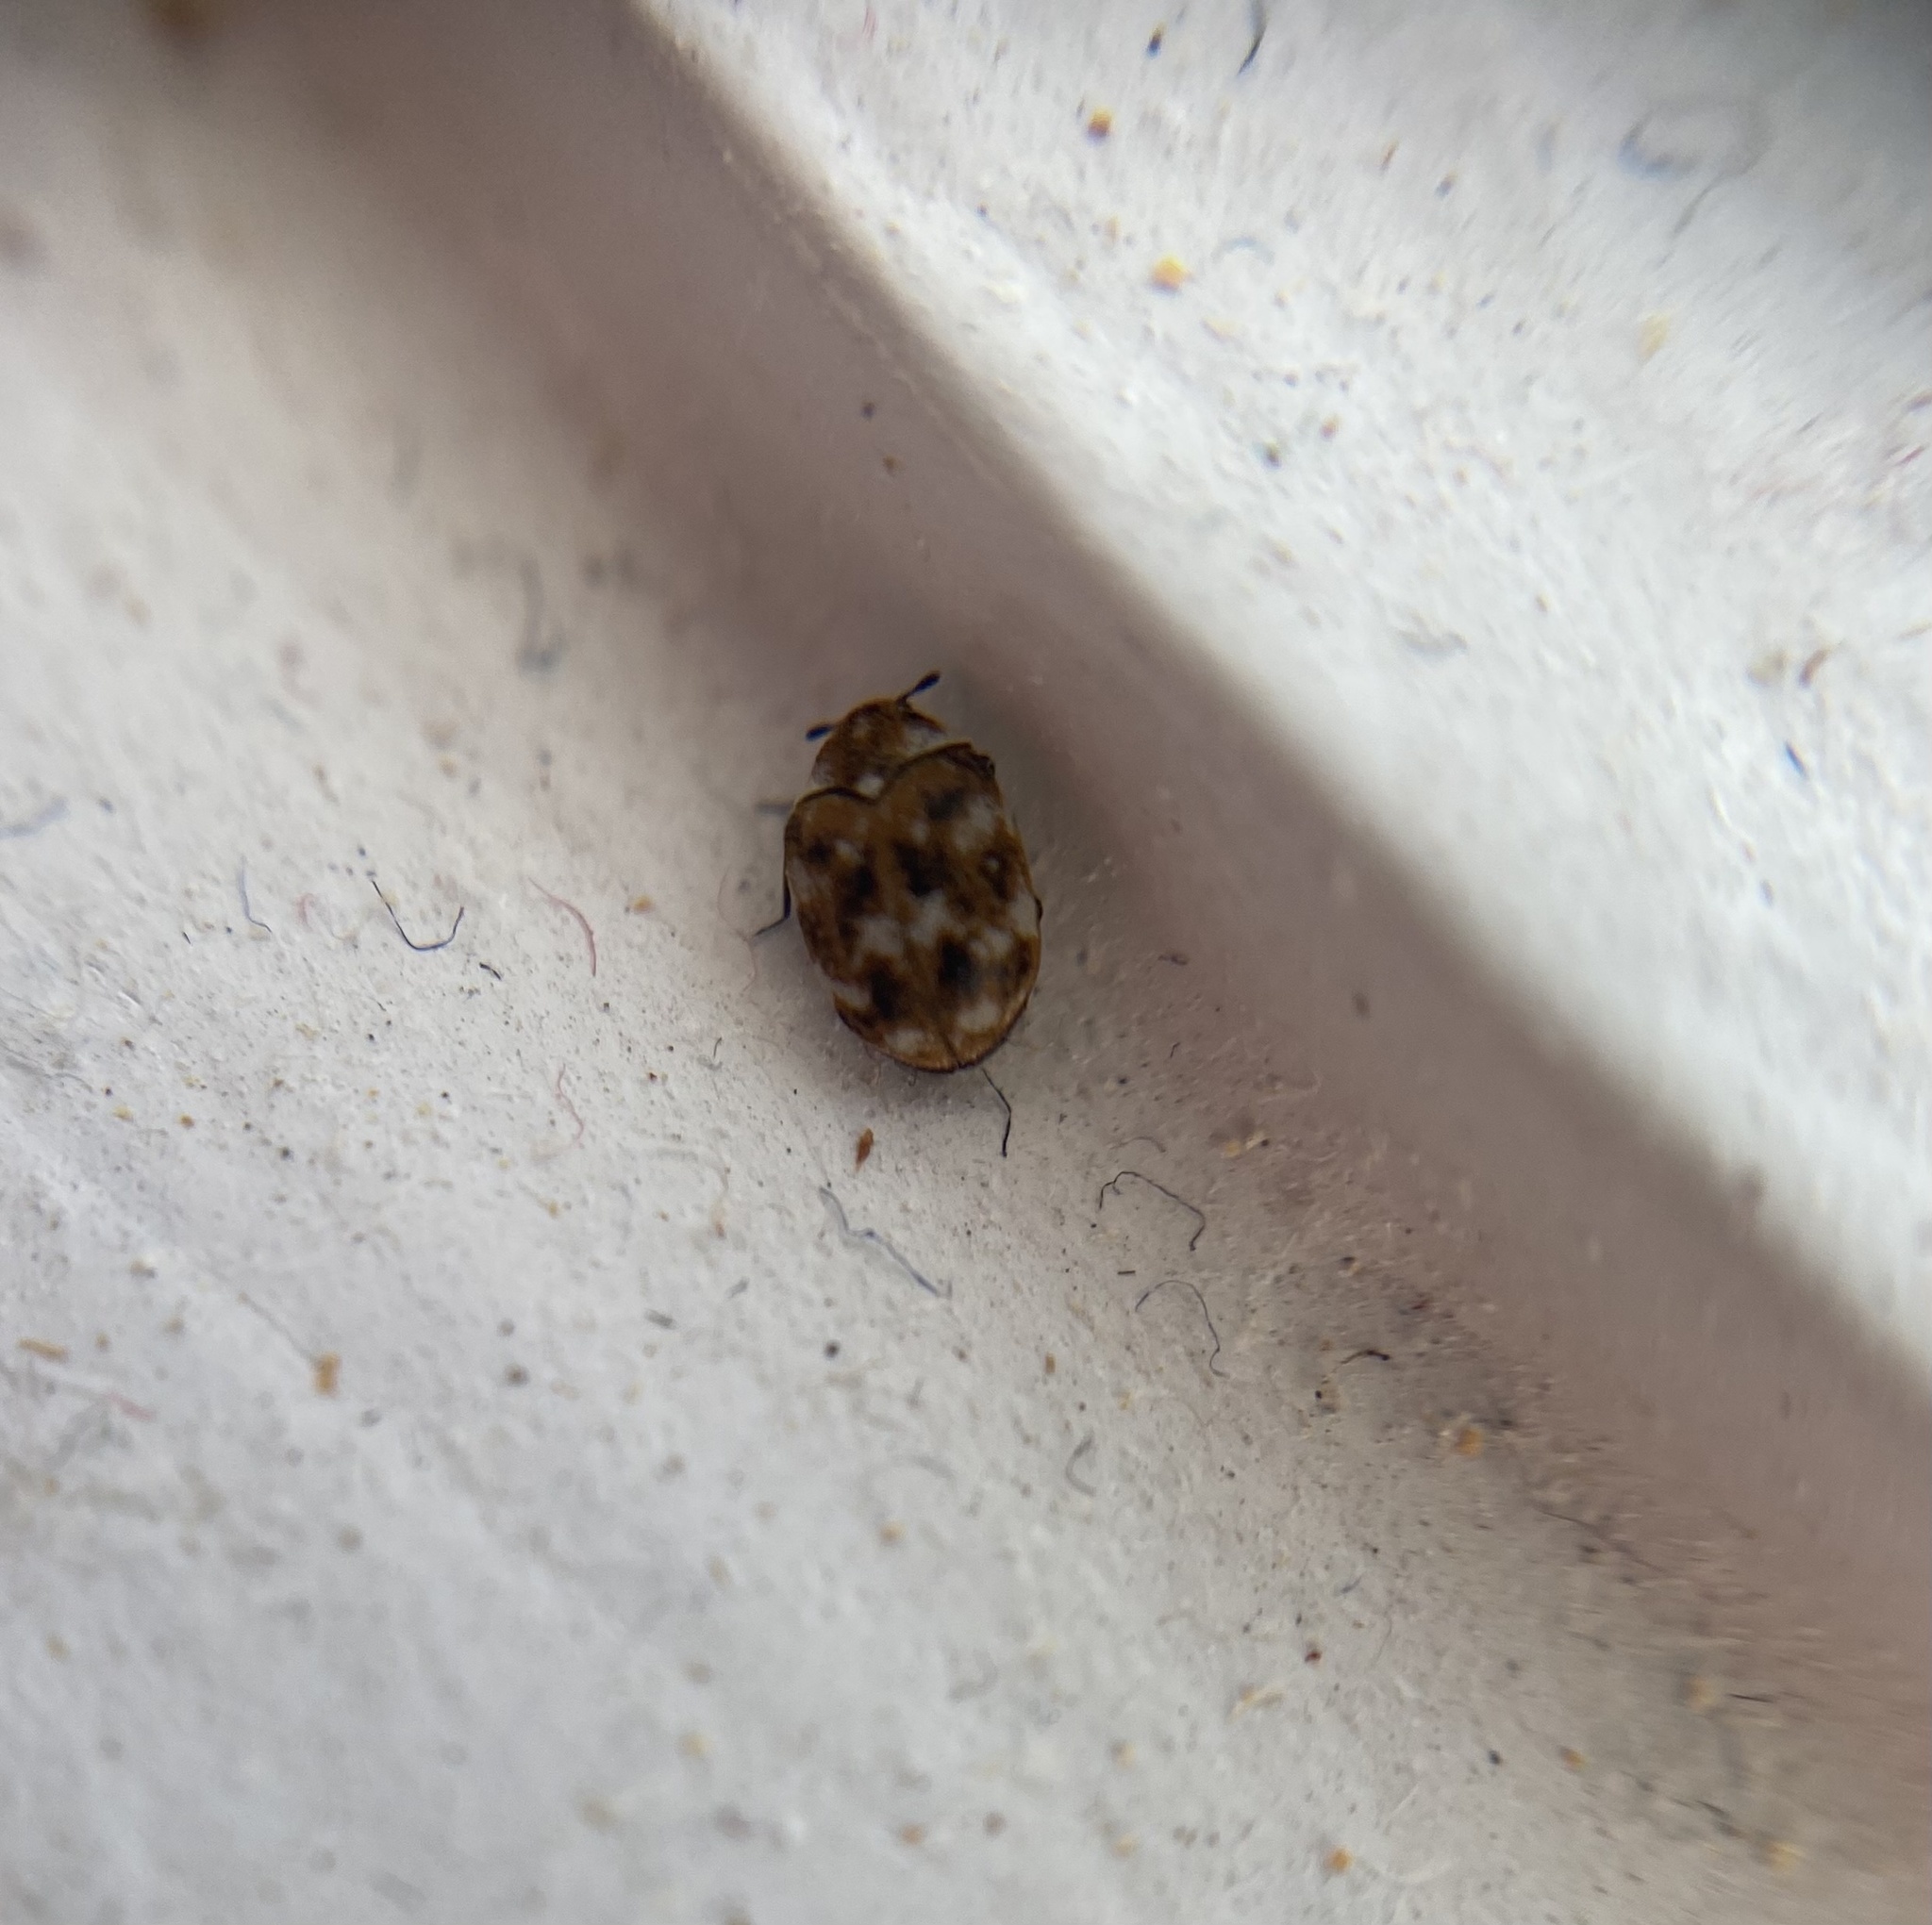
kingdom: Animalia
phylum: Arthropoda
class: Insecta
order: Coleoptera
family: Dermestidae
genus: Anthrenus
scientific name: Anthrenus verbasci
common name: Varied carpet beetle
